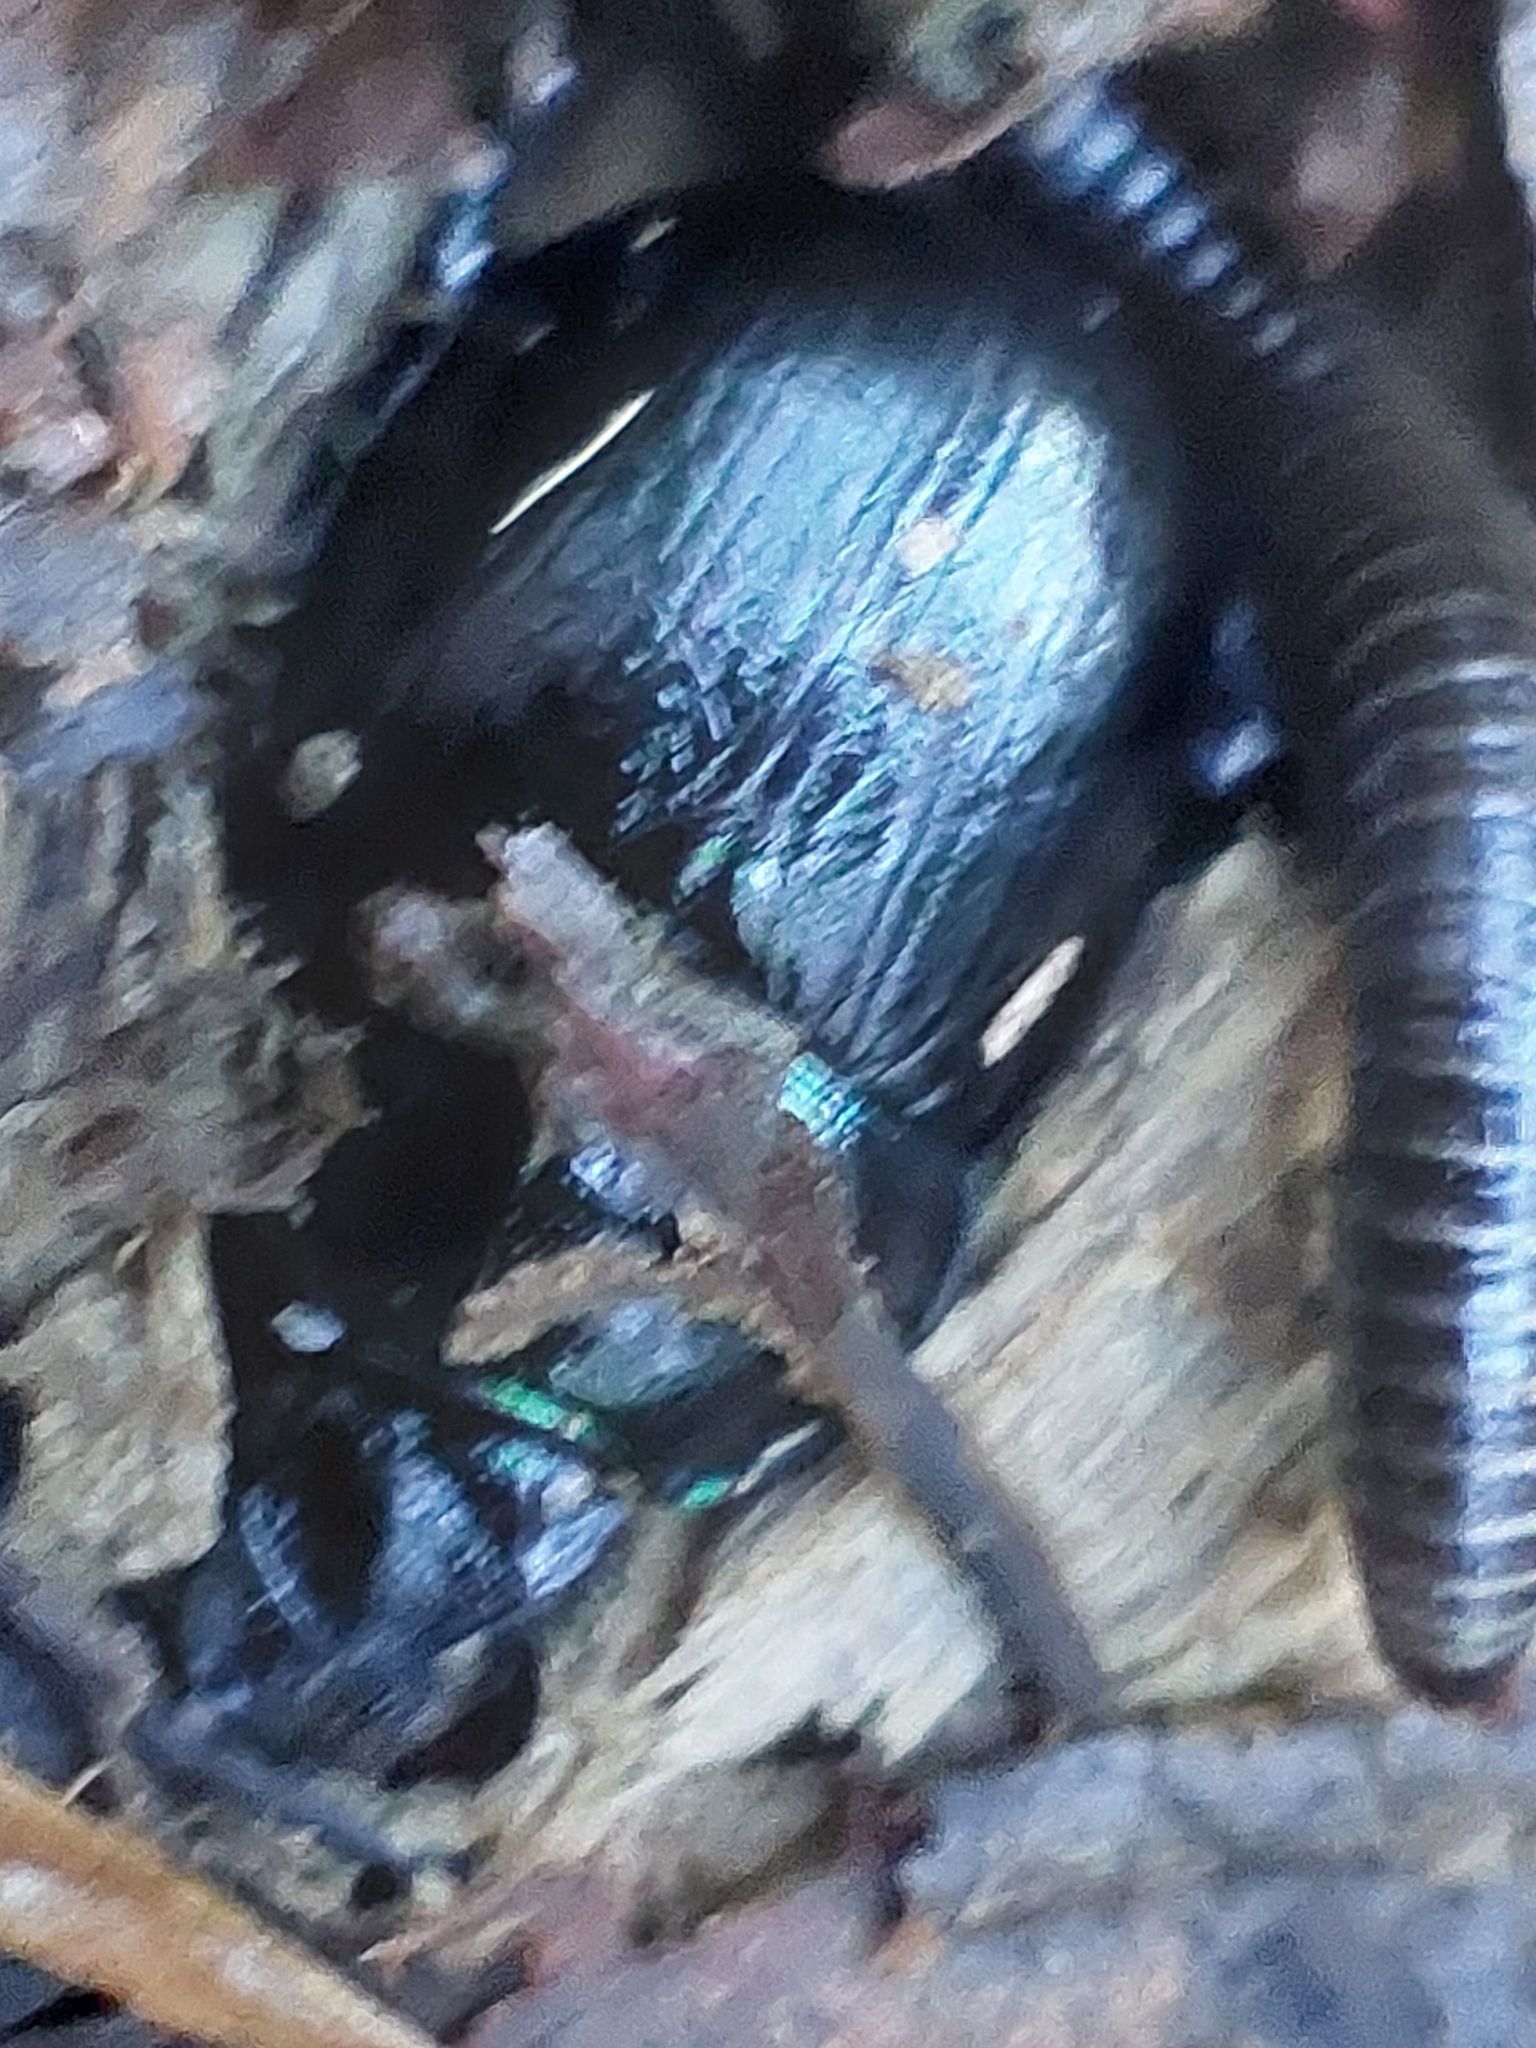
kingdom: Animalia
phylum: Arthropoda
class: Insecta
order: Coleoptera
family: Geotrupidae
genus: Anoplotrupes
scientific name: Anoplotrupes stercorosus
